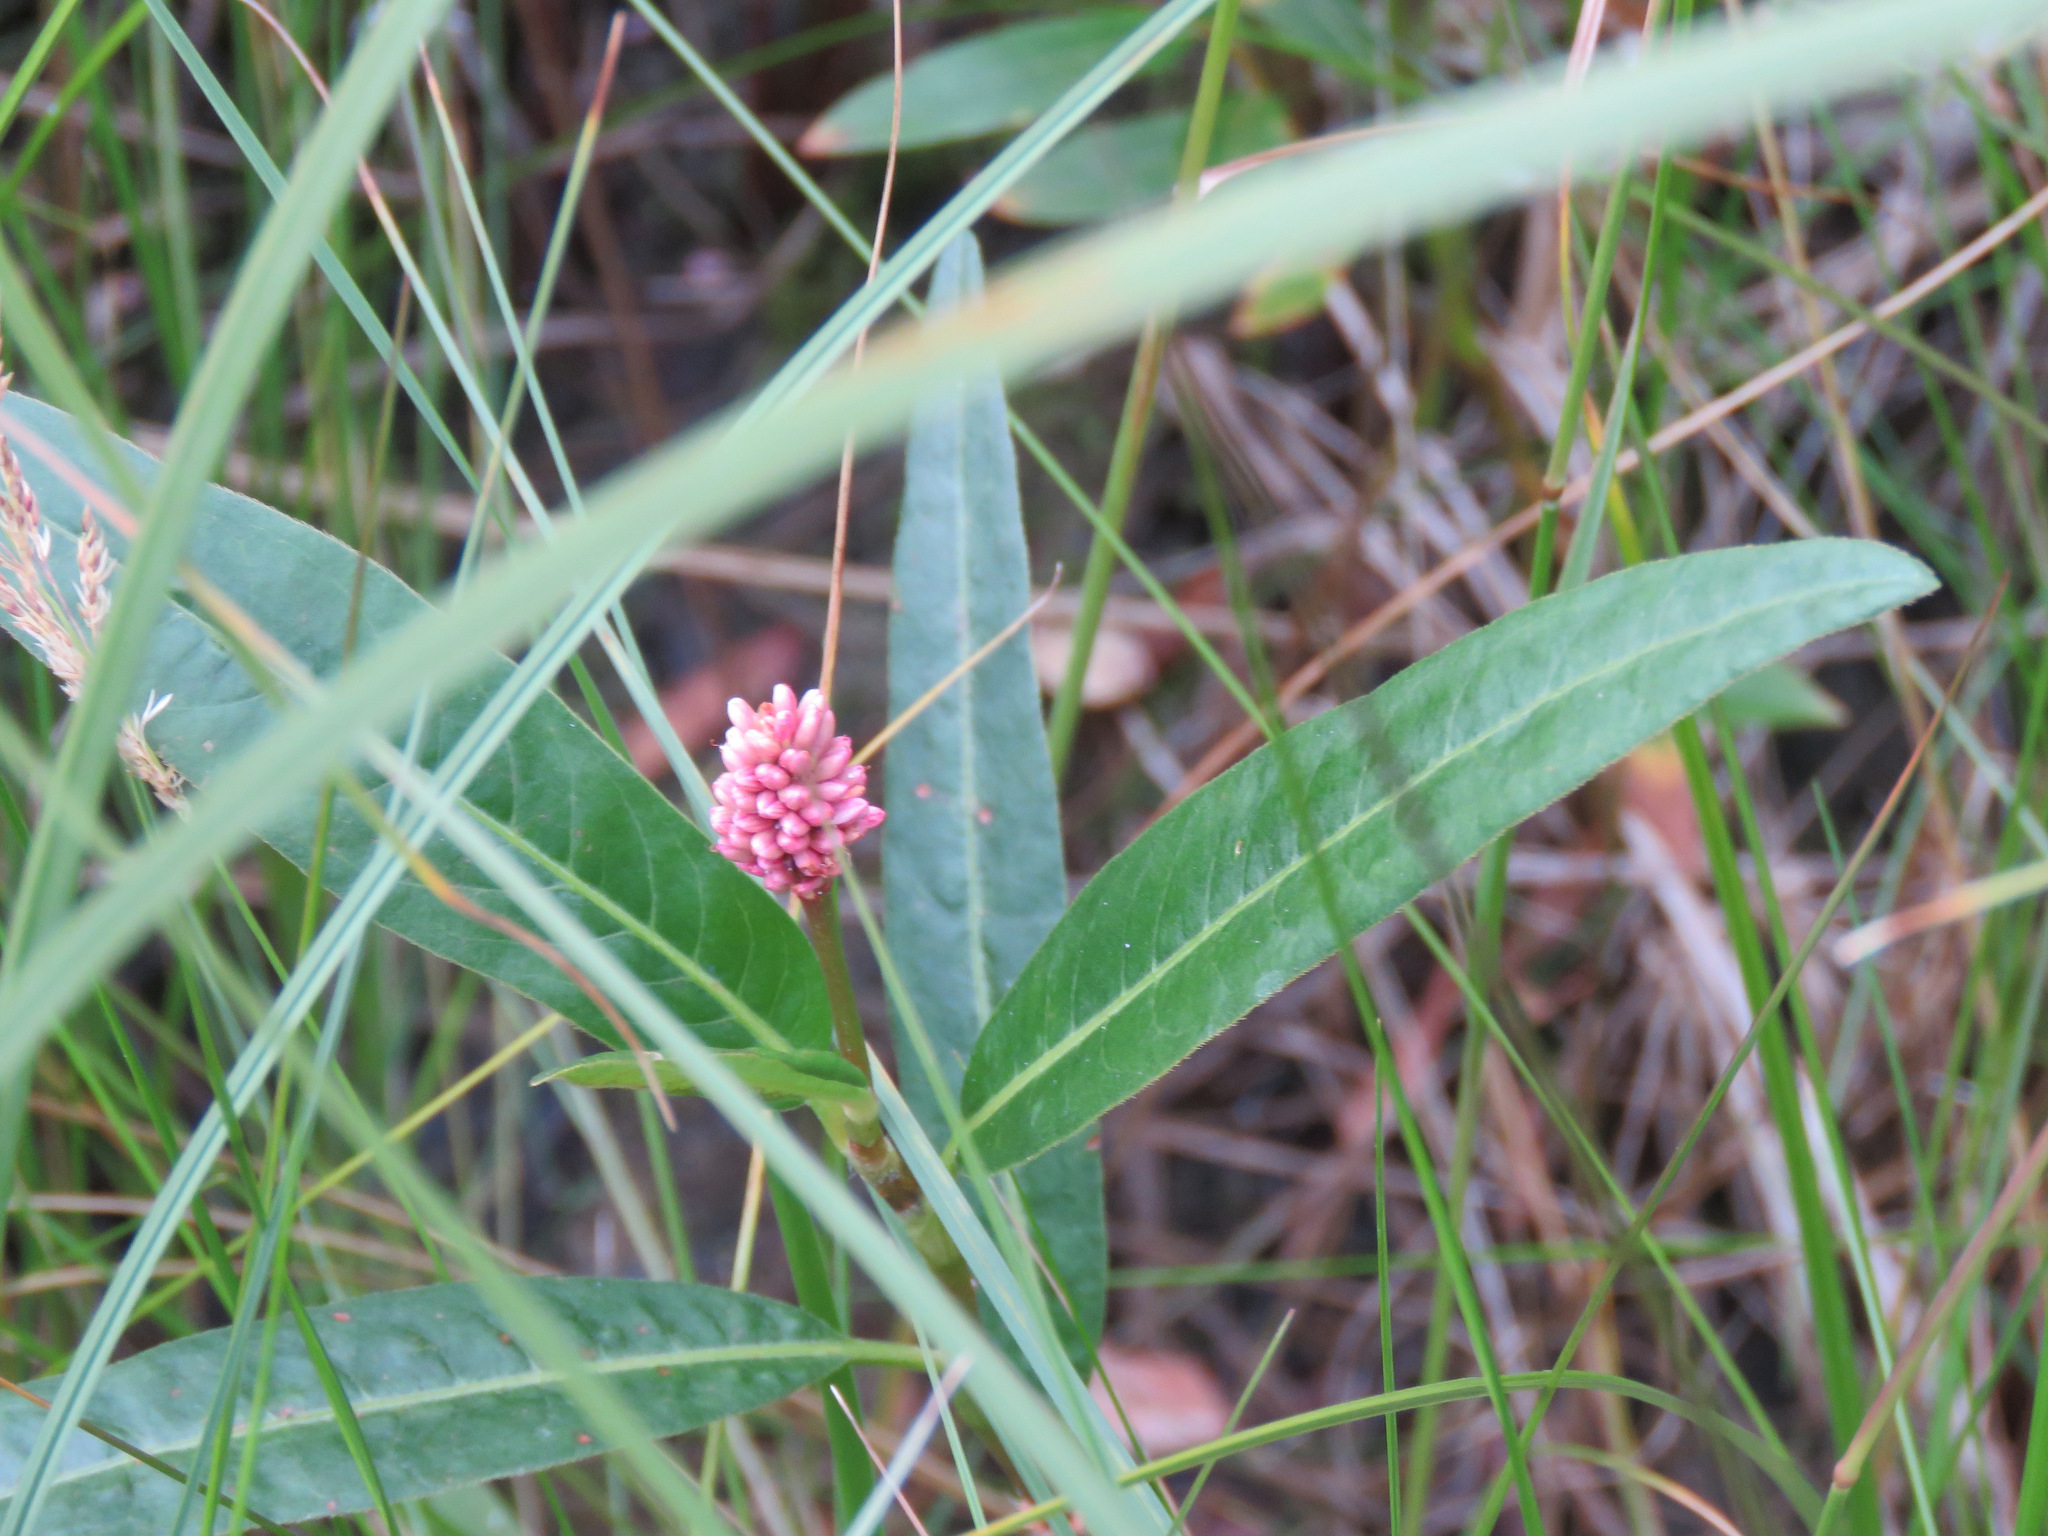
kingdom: Plantae
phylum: Tracheophyta
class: Magnoliopsida
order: Caryophyllales
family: Polygonaceae
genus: Persicaria
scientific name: Persicaria amphibia
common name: Amphibious bistort
